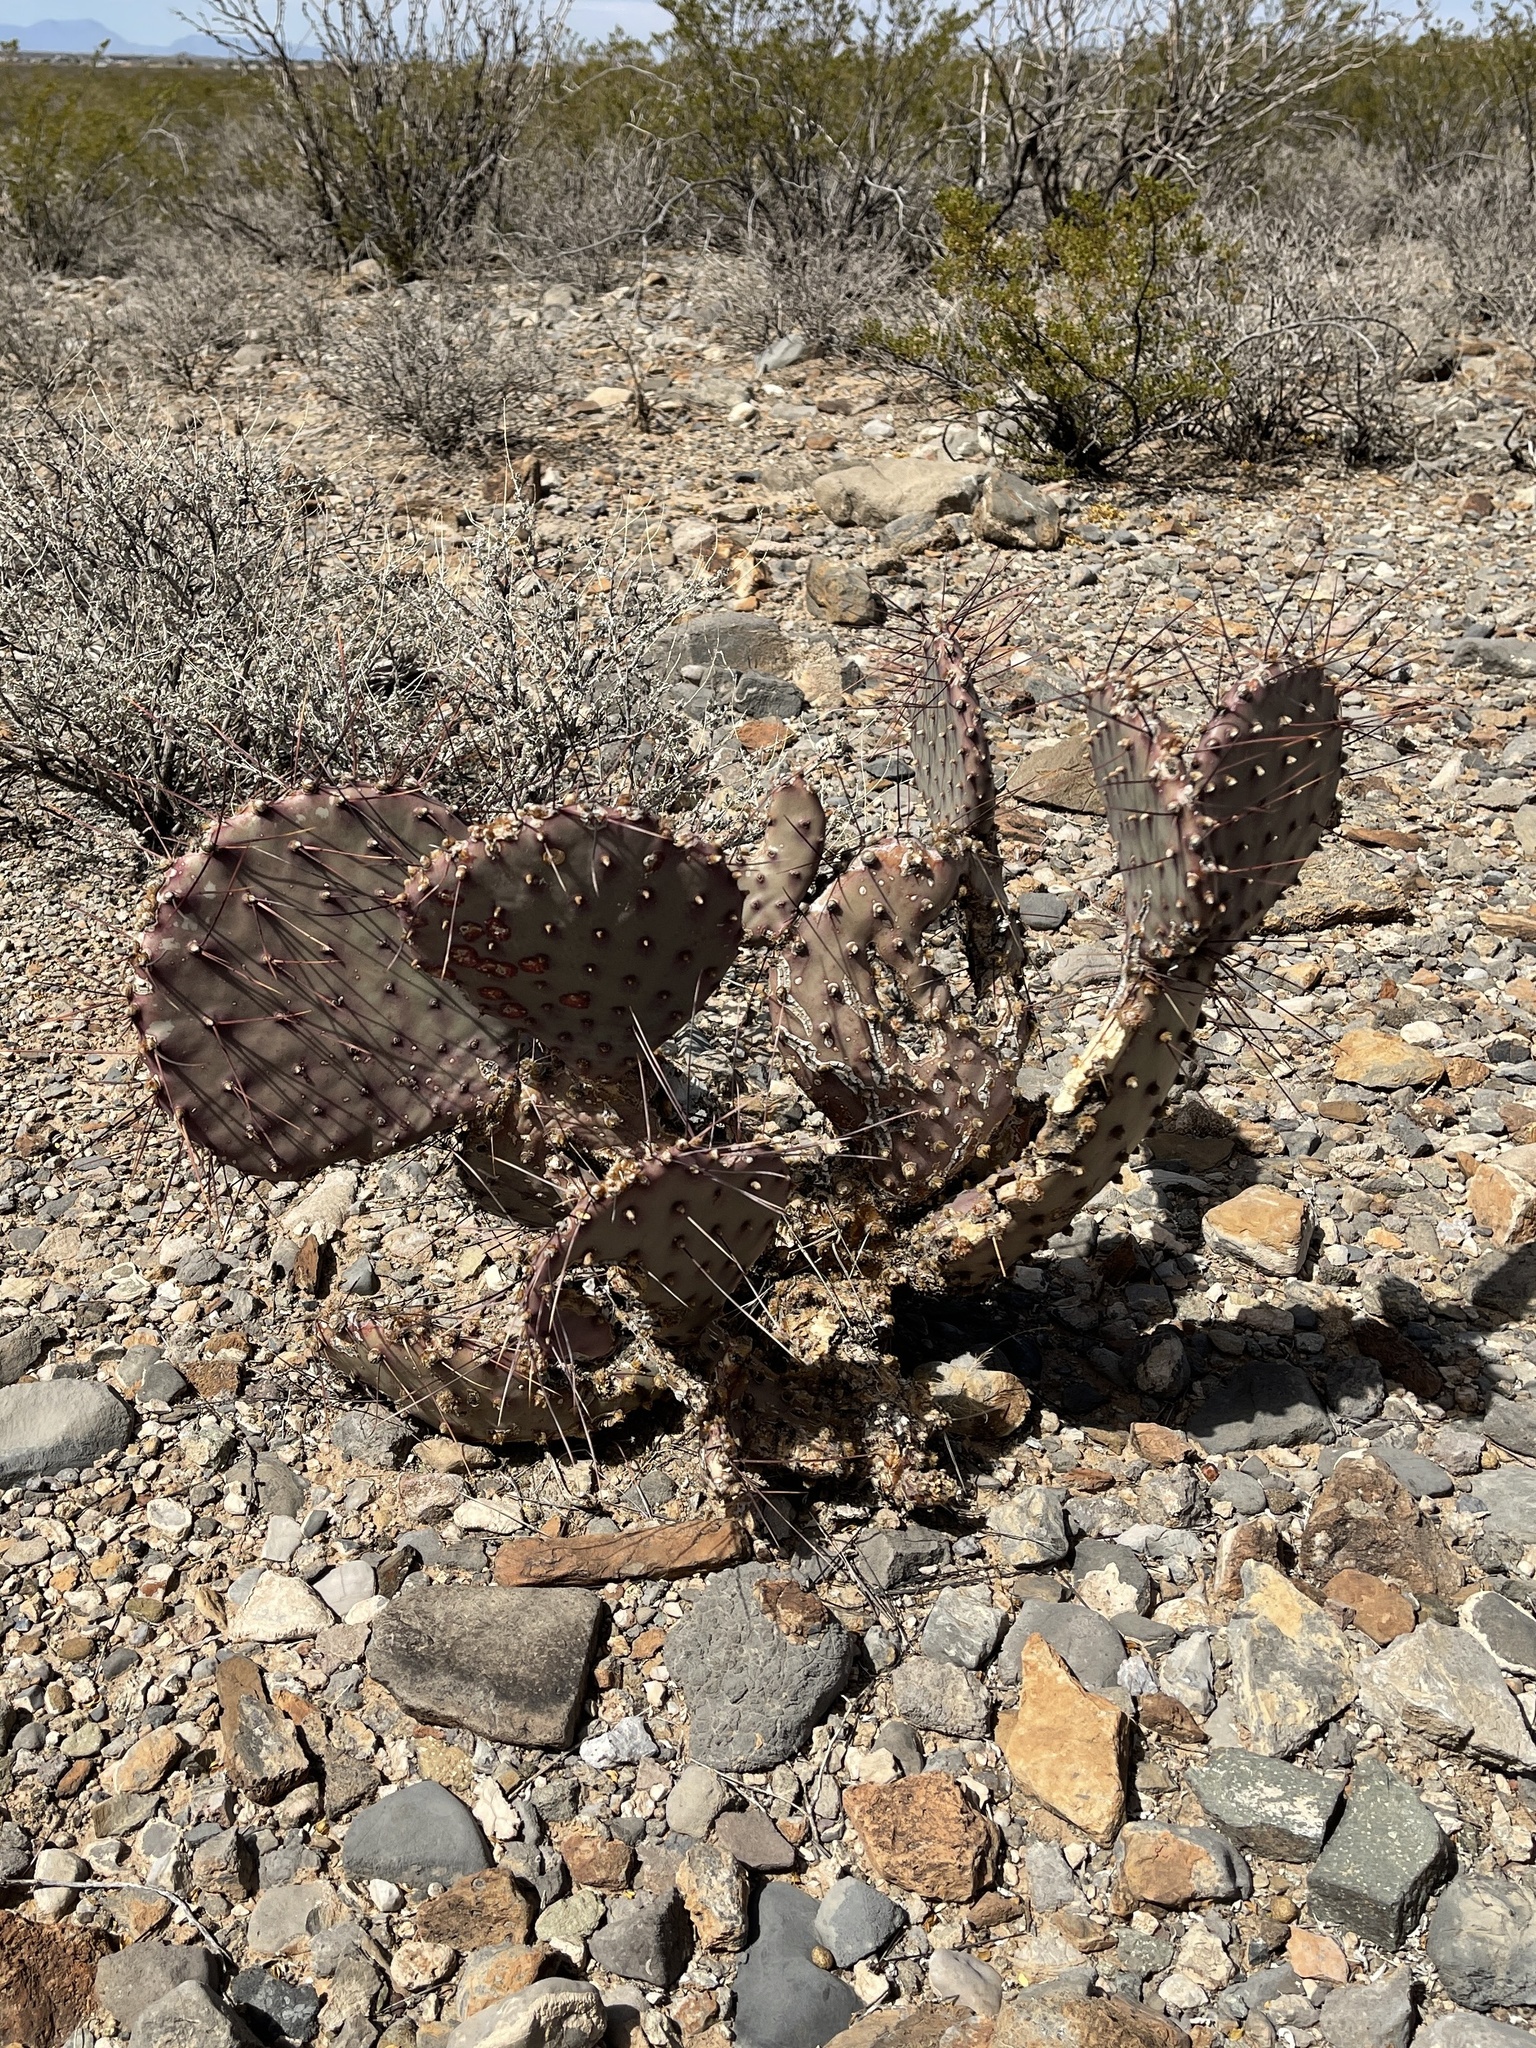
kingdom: Plantae
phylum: Tracheophyta
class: Magnoliopsida
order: Caryophyllales
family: Cactaceae
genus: Opuntia
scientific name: Opuntia macrocentra
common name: Purple prickly-pear
